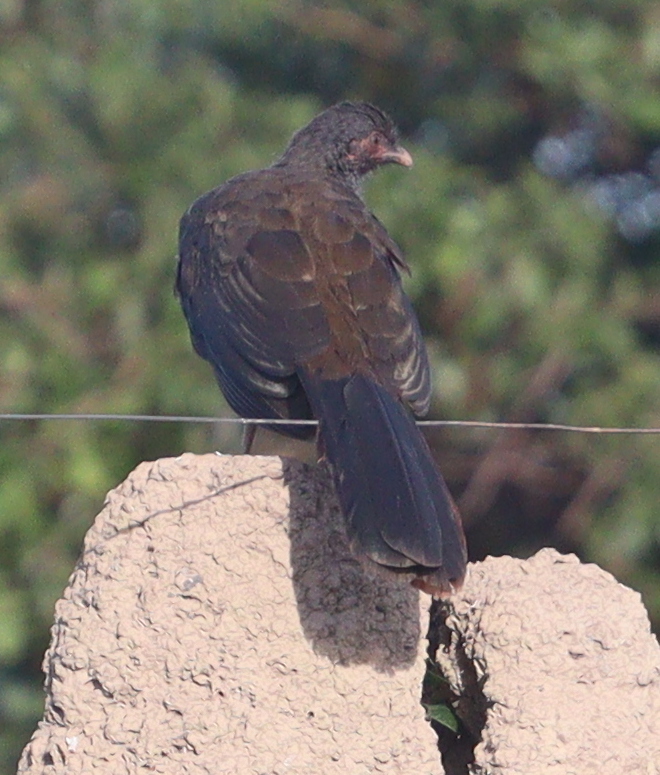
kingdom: Animalia
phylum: Chordata
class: Aves
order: Galliformes
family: Cracidae
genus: Ortalis
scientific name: Ortalis canicollis
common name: Chaco chachalaca
